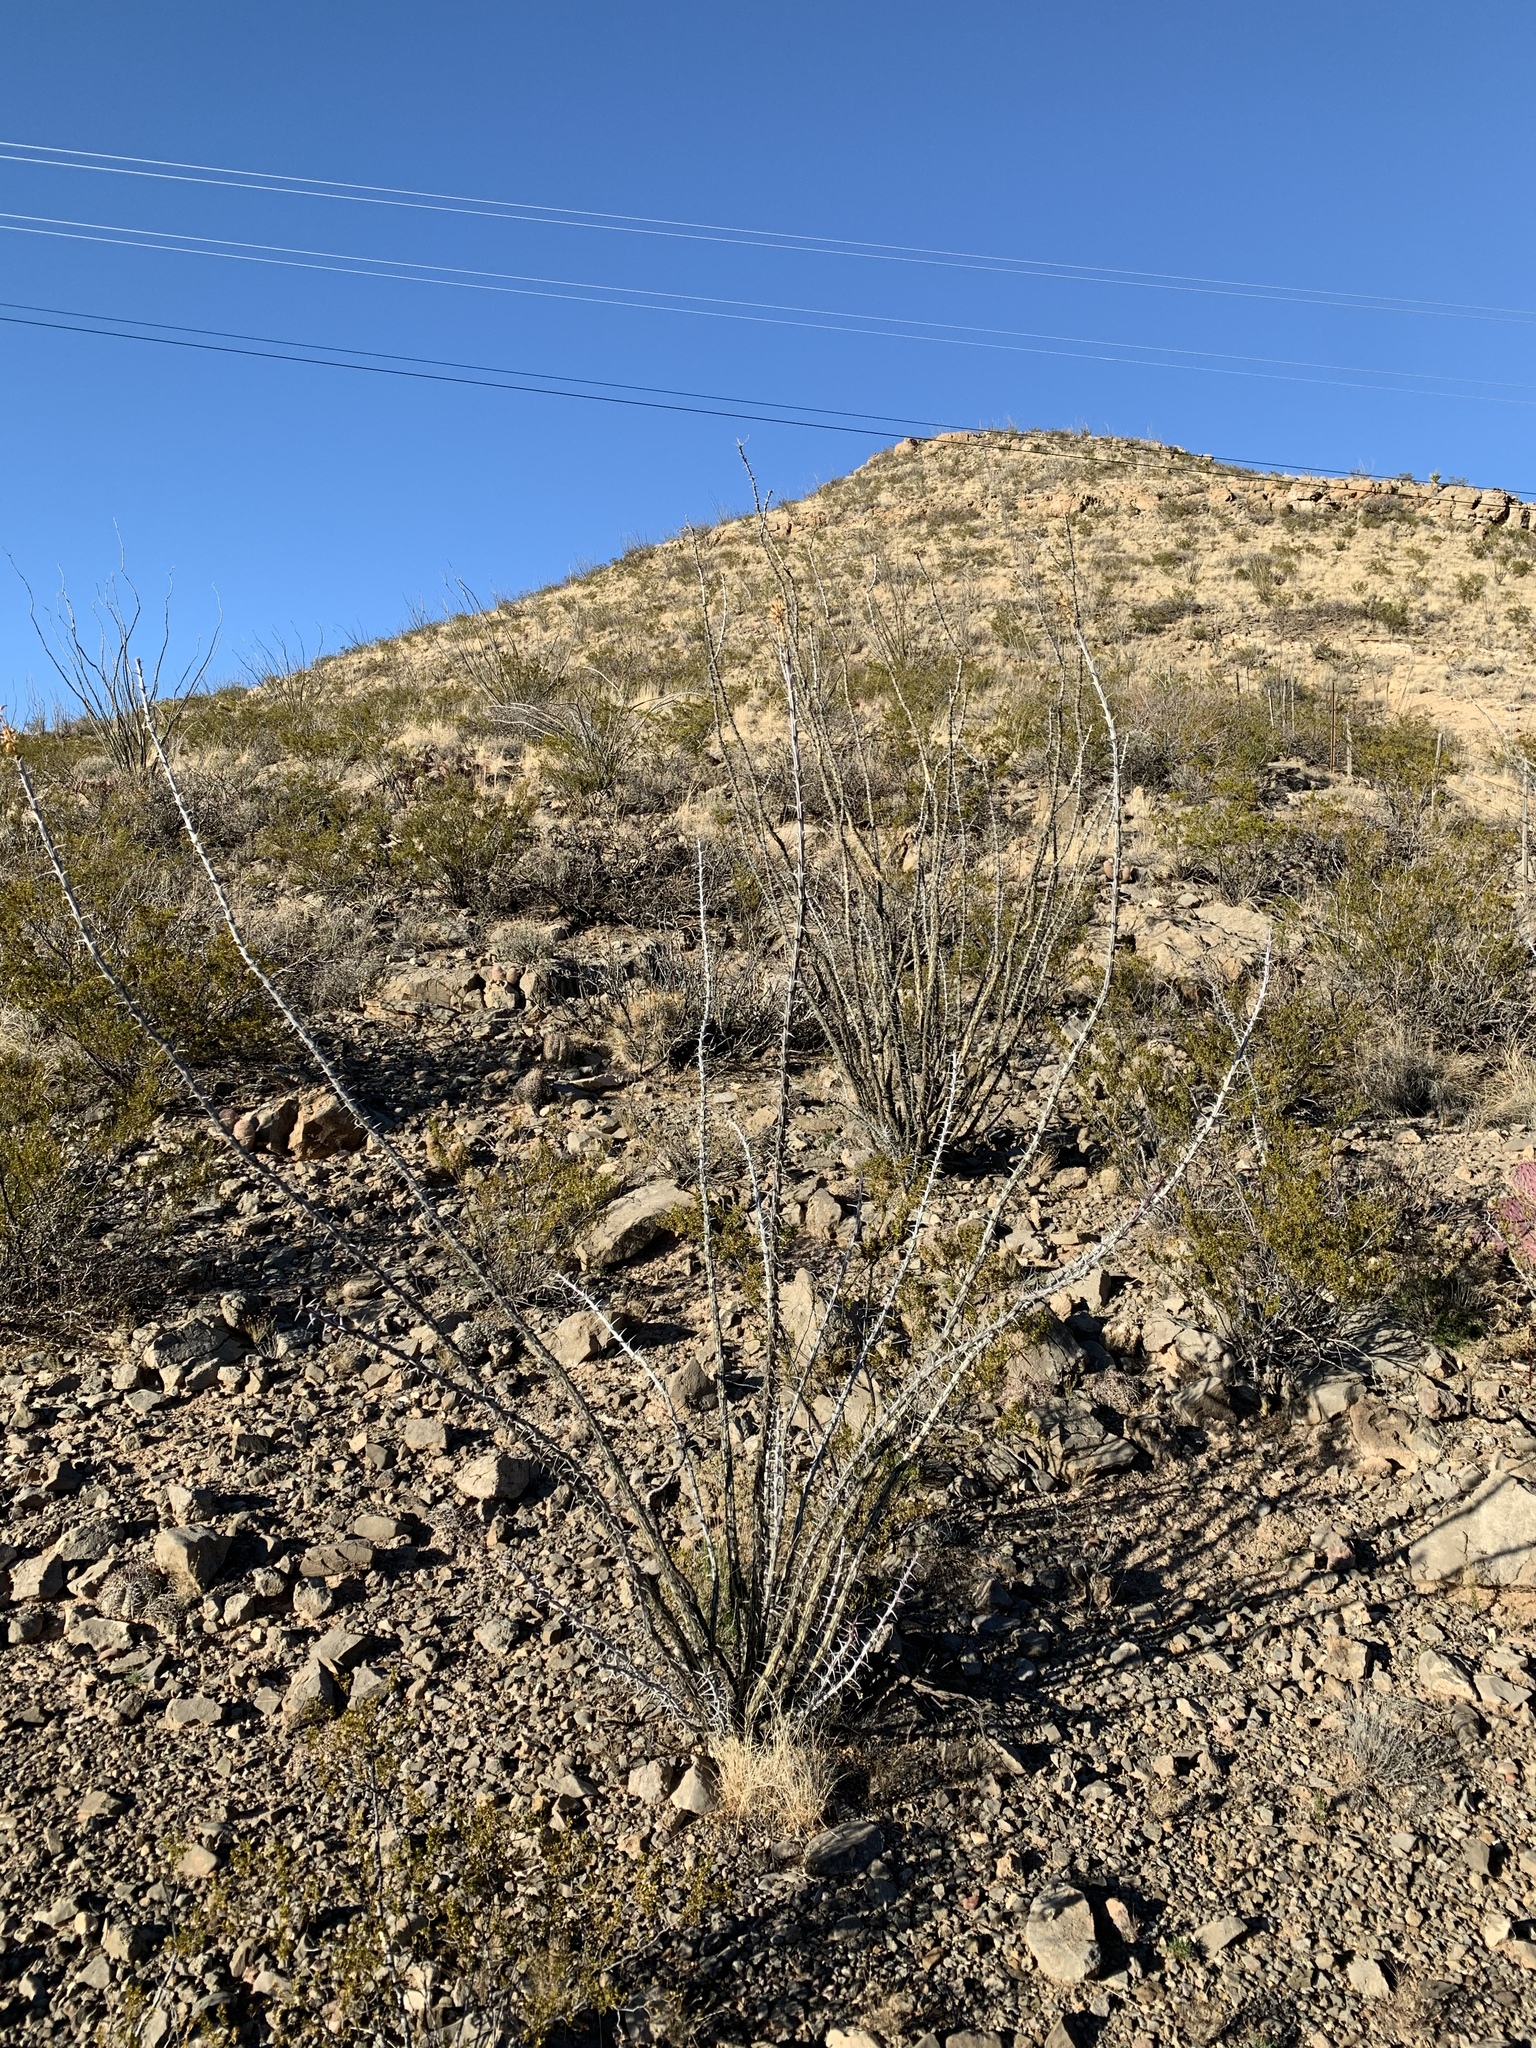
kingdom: Plantae
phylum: Tracheophyta
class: Magnoliopsida
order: Ericales
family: Fouquieriaceae
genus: Fouquieria
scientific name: Fouquieria splendens
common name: Vine-cactus
